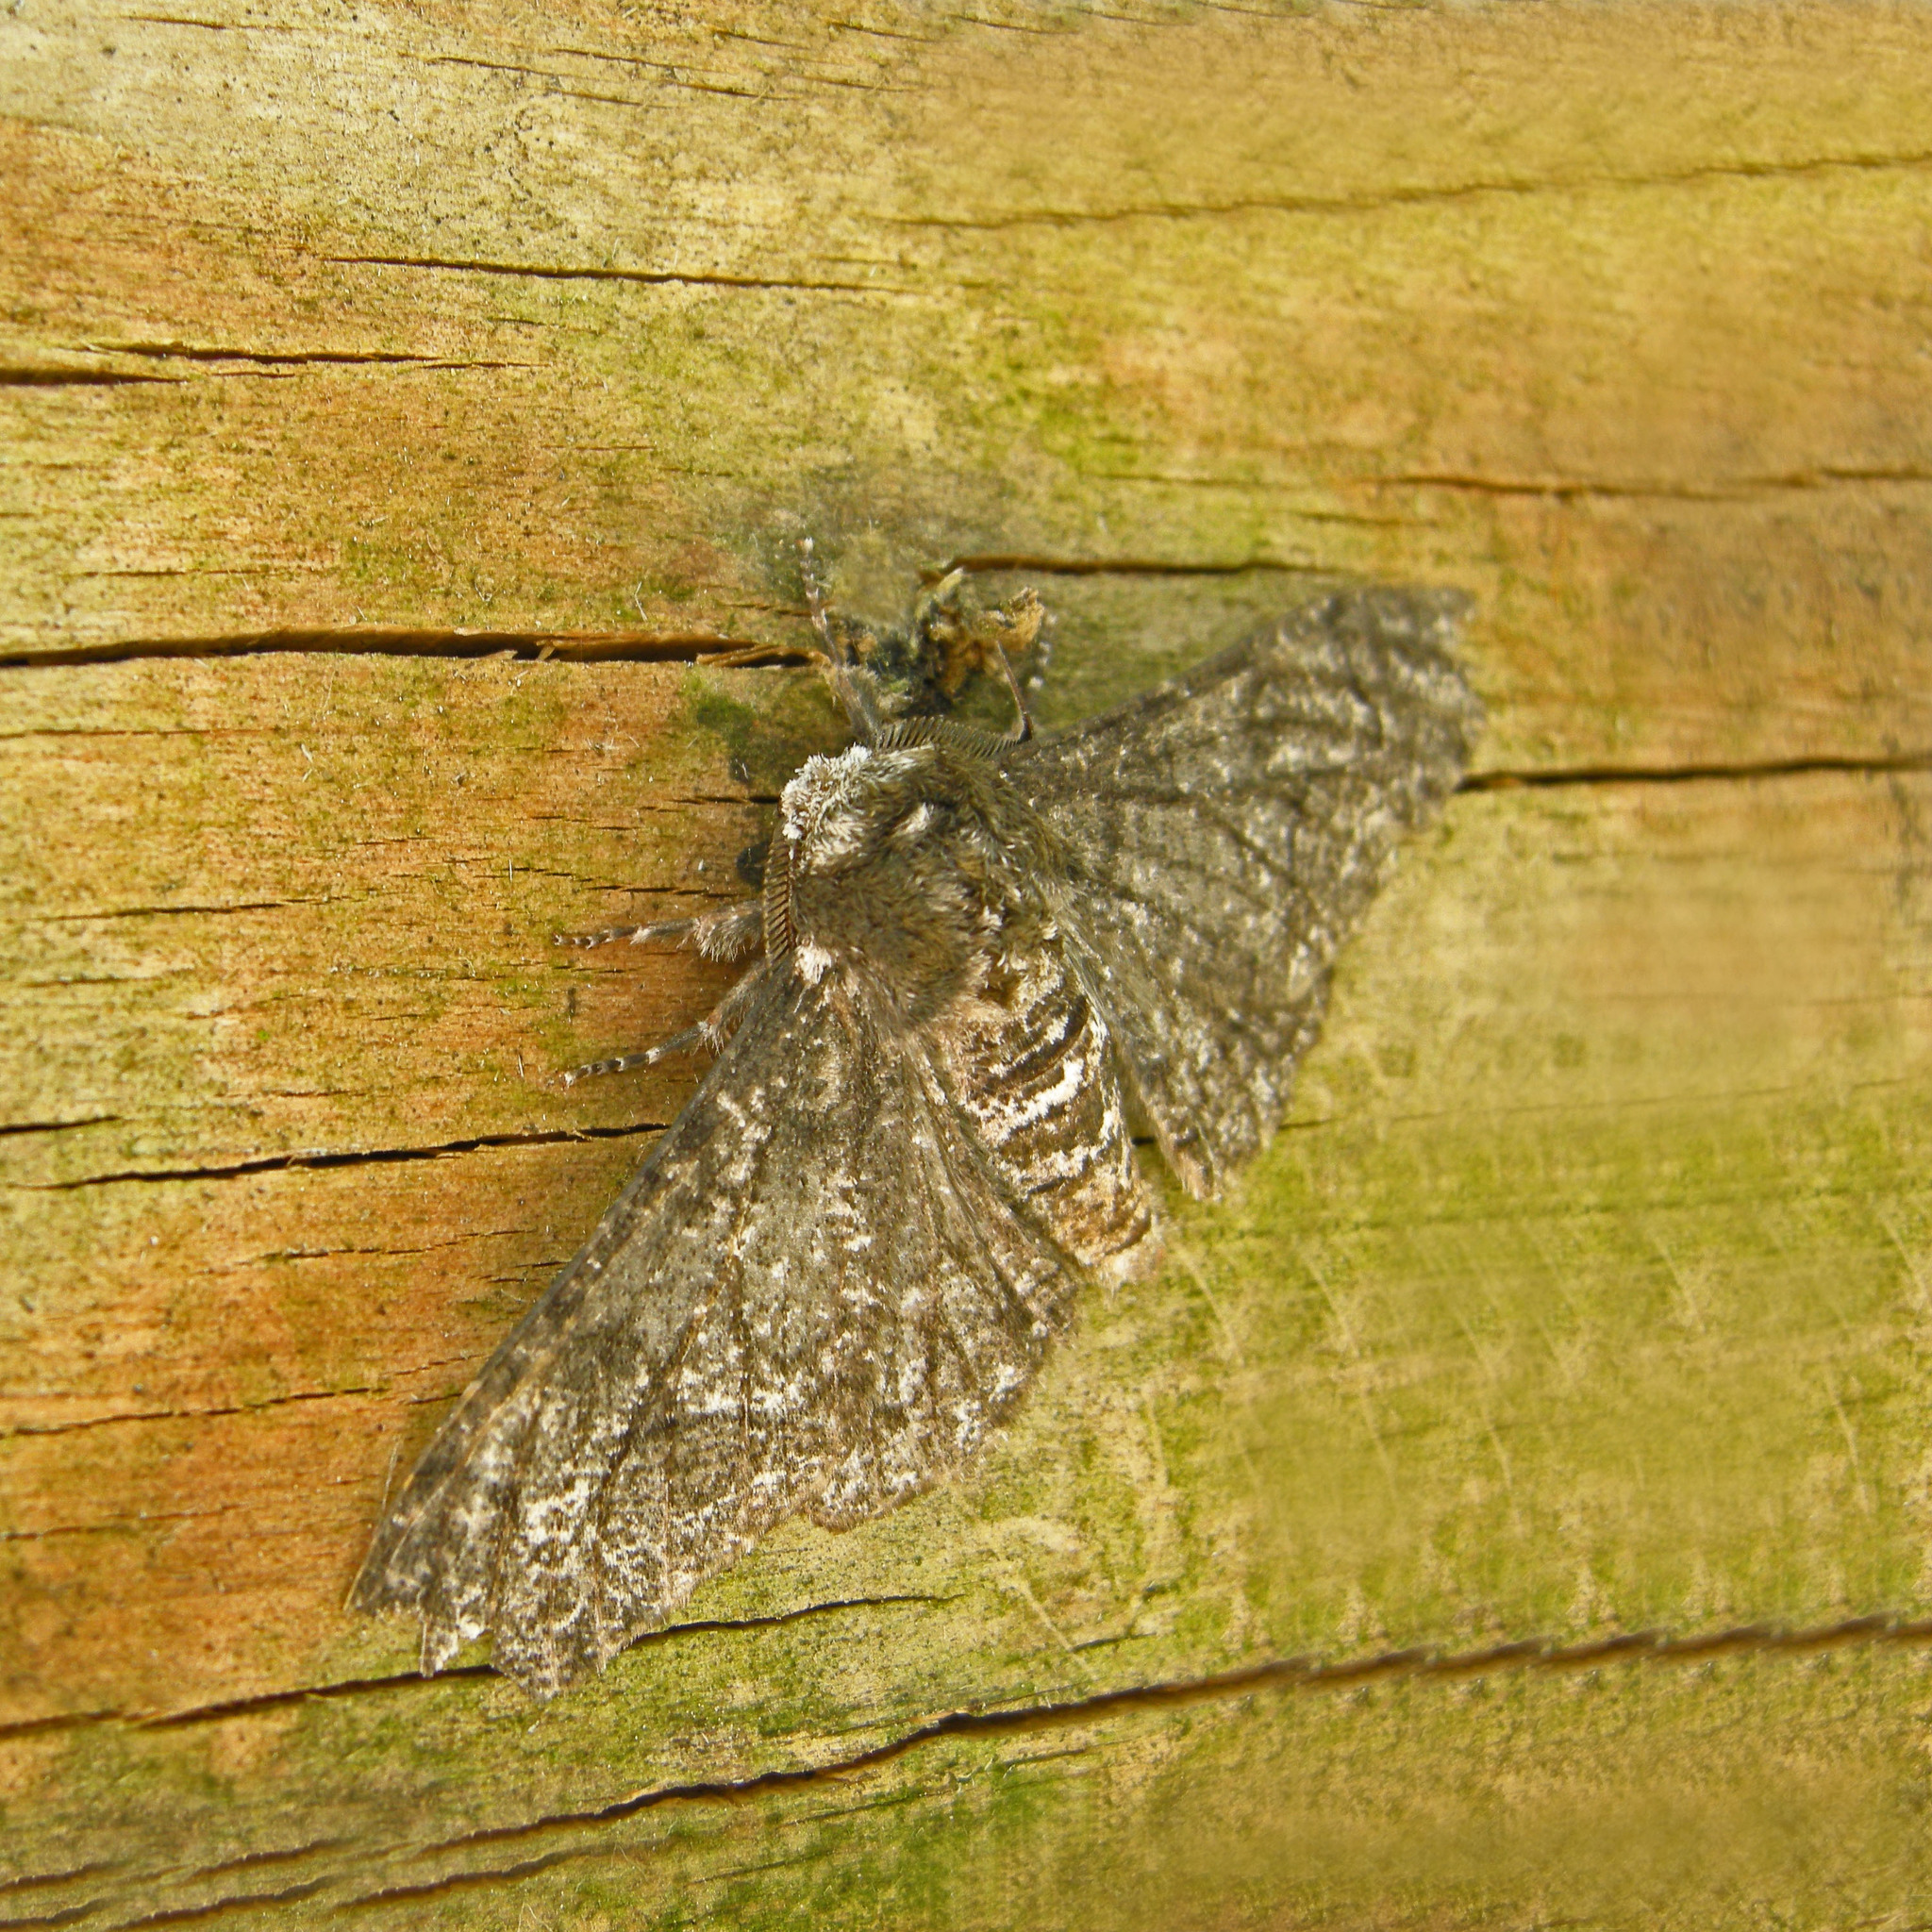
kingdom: Animalia
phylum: Arthropoda
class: Insecta
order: Lepidoptera
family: Geometridae
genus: Biston
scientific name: Biston betularia
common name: Peppered moth
